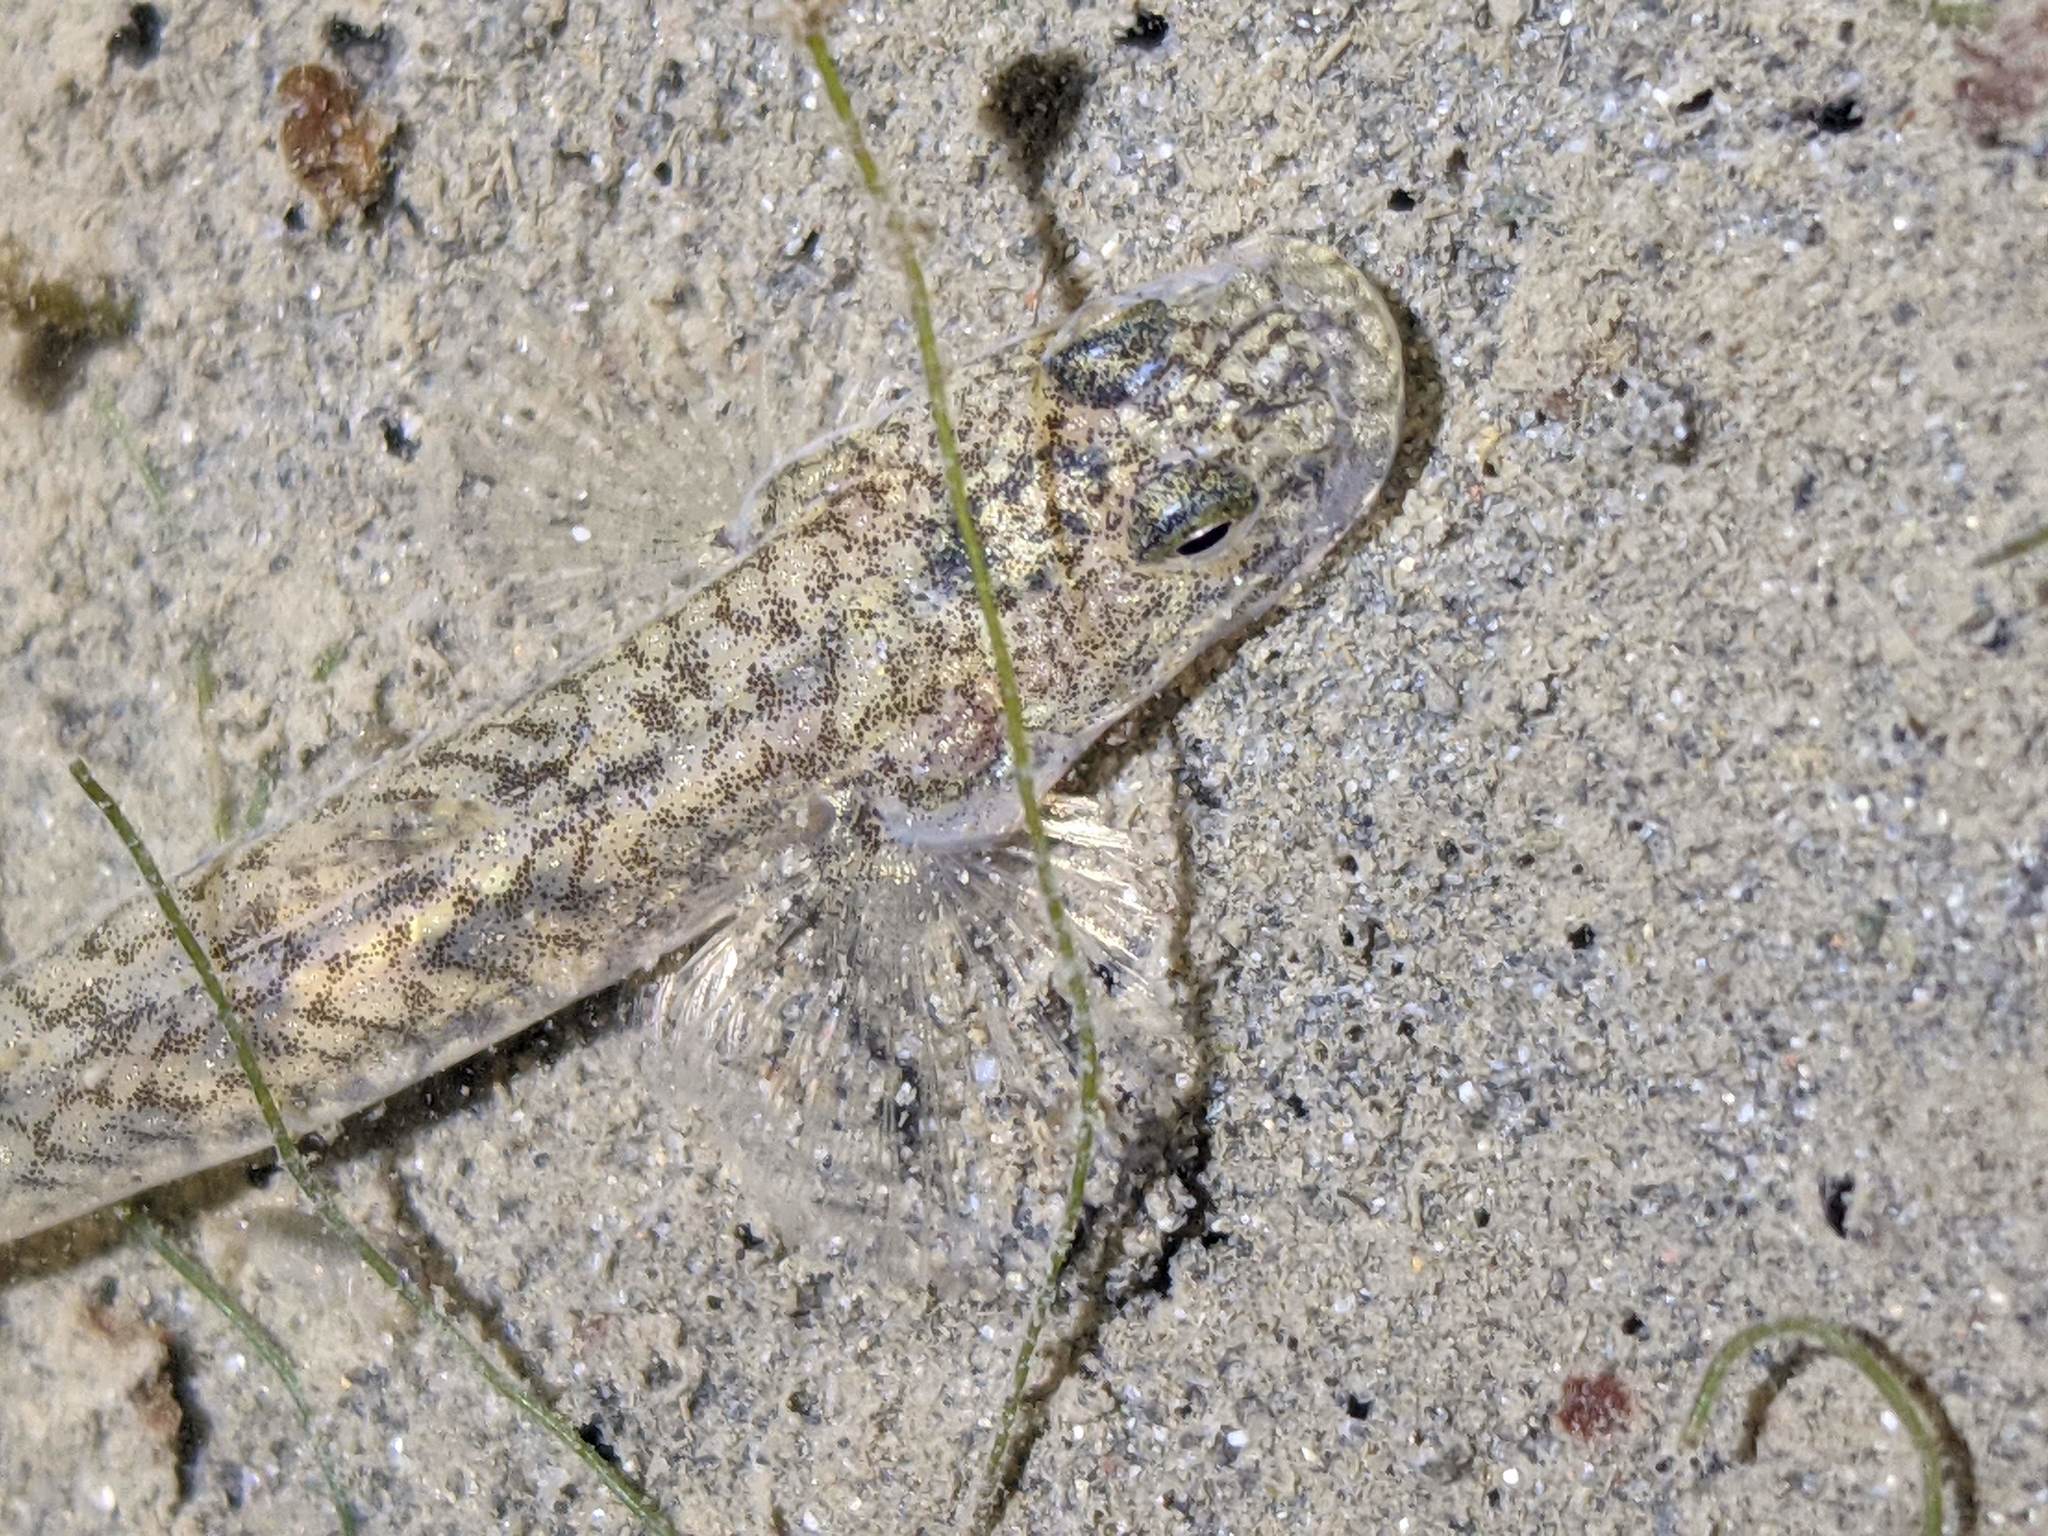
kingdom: Animalia
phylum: Chordata
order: Perciformes
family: Gobiidae
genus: Clevelandia
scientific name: Clevelandia ios
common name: Arrow goby
